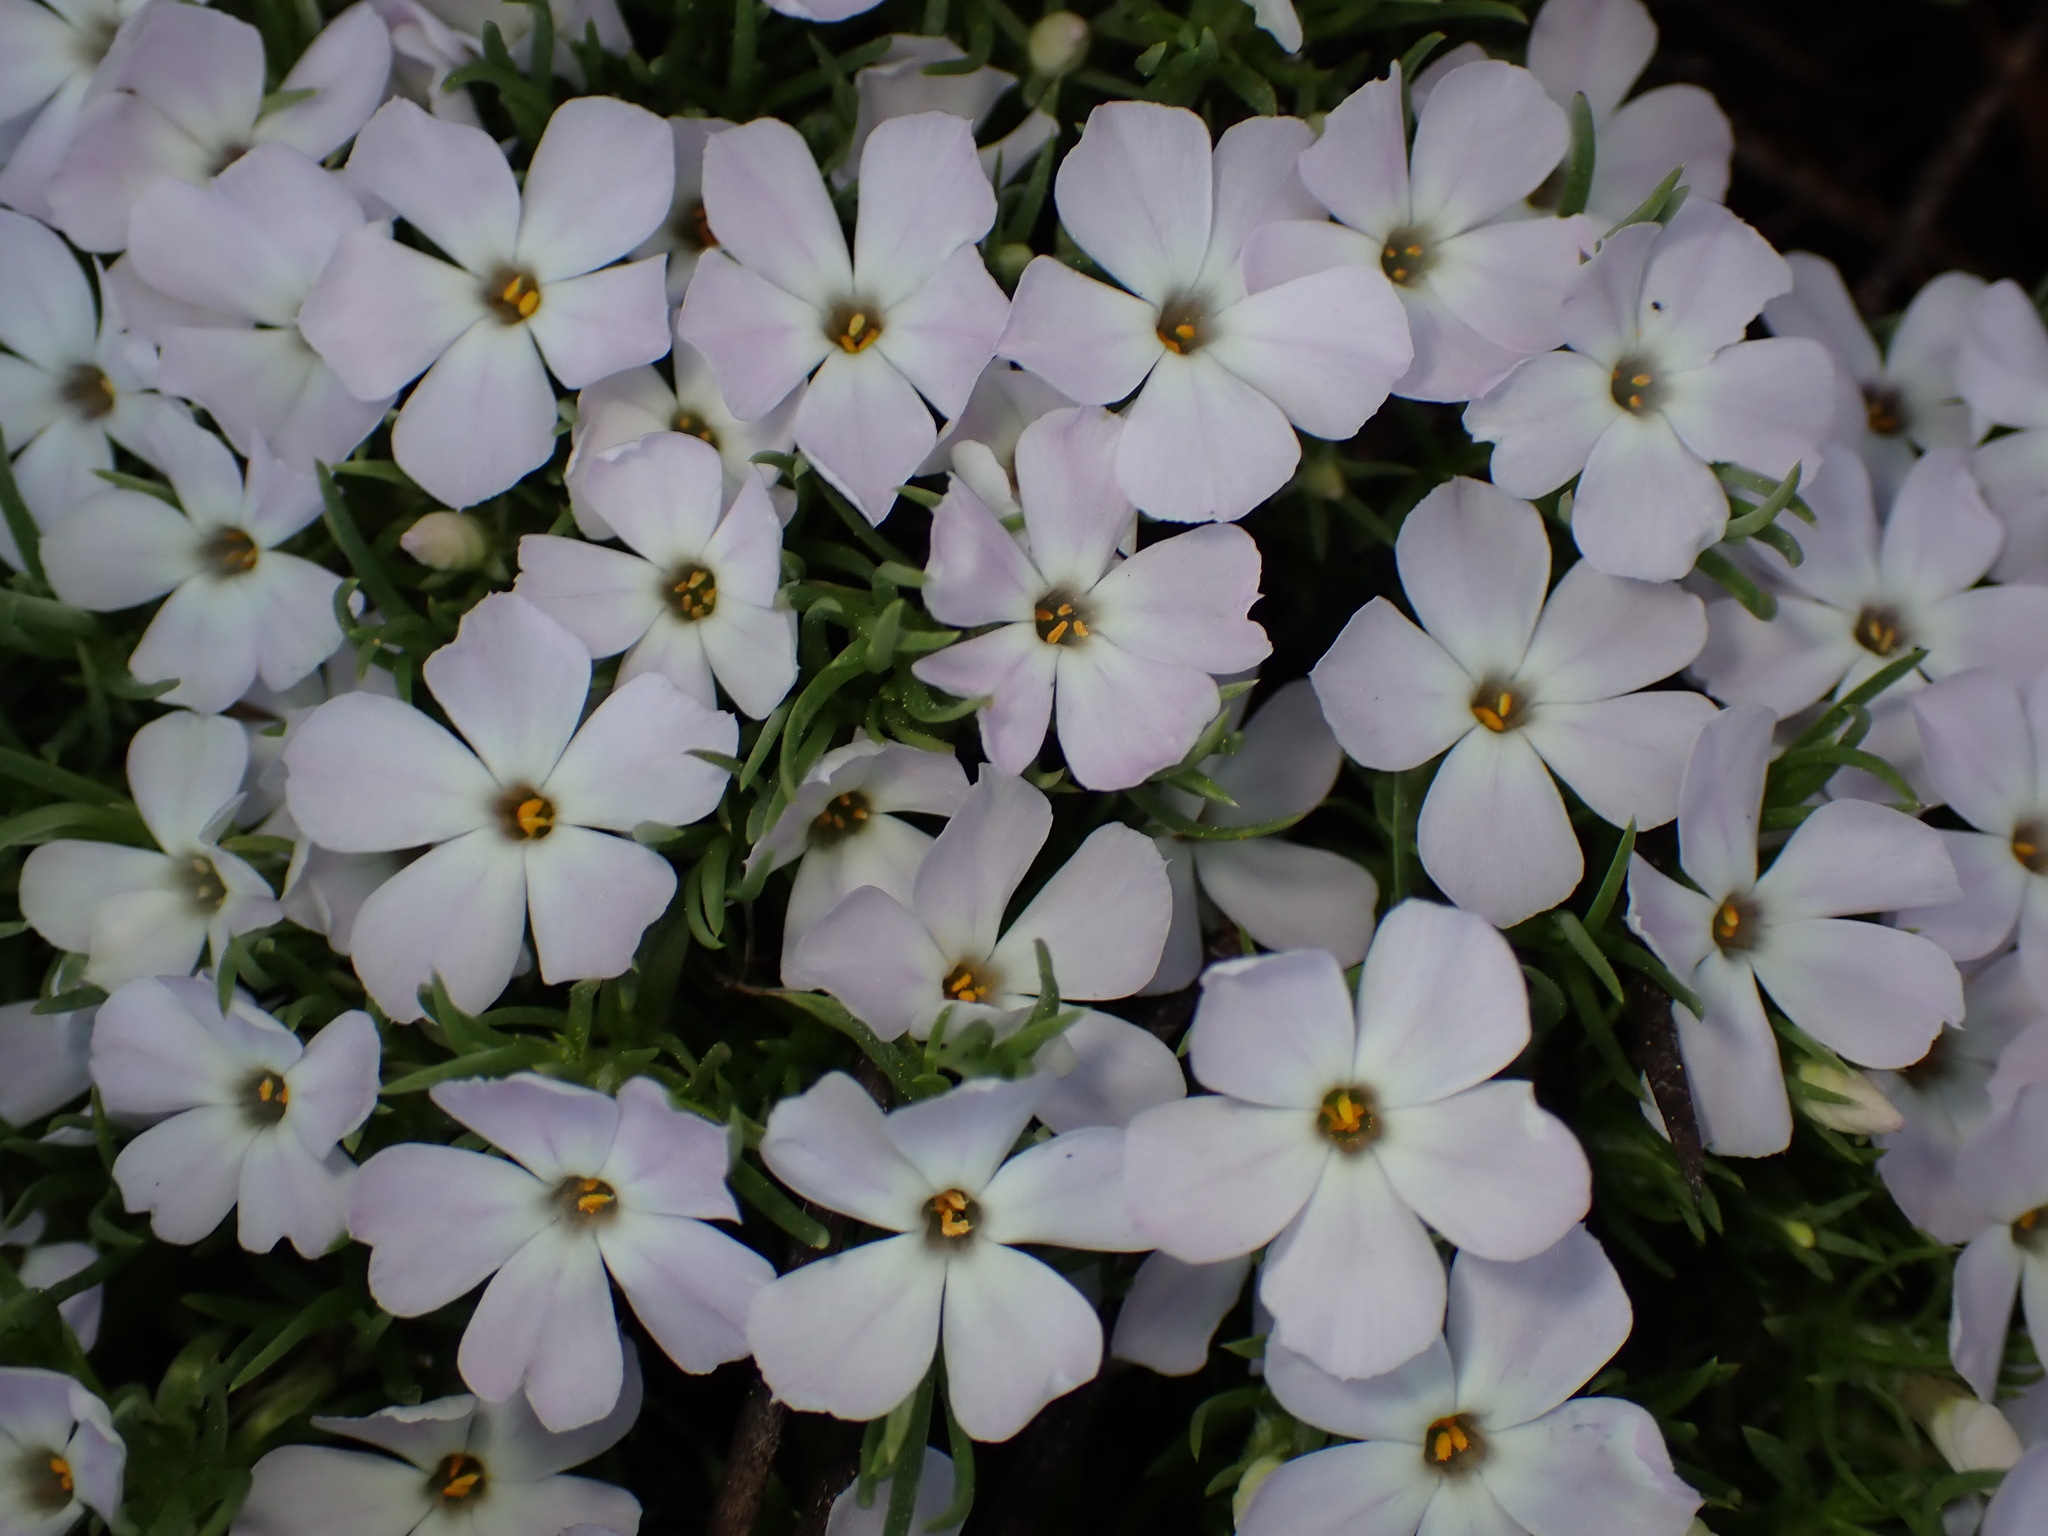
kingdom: Plantae
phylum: Tracheophyta
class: Magnoliopsida
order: Ericales
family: Polemoniaceae
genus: Phlox
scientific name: Phlox diffusa
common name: Mat phlox
